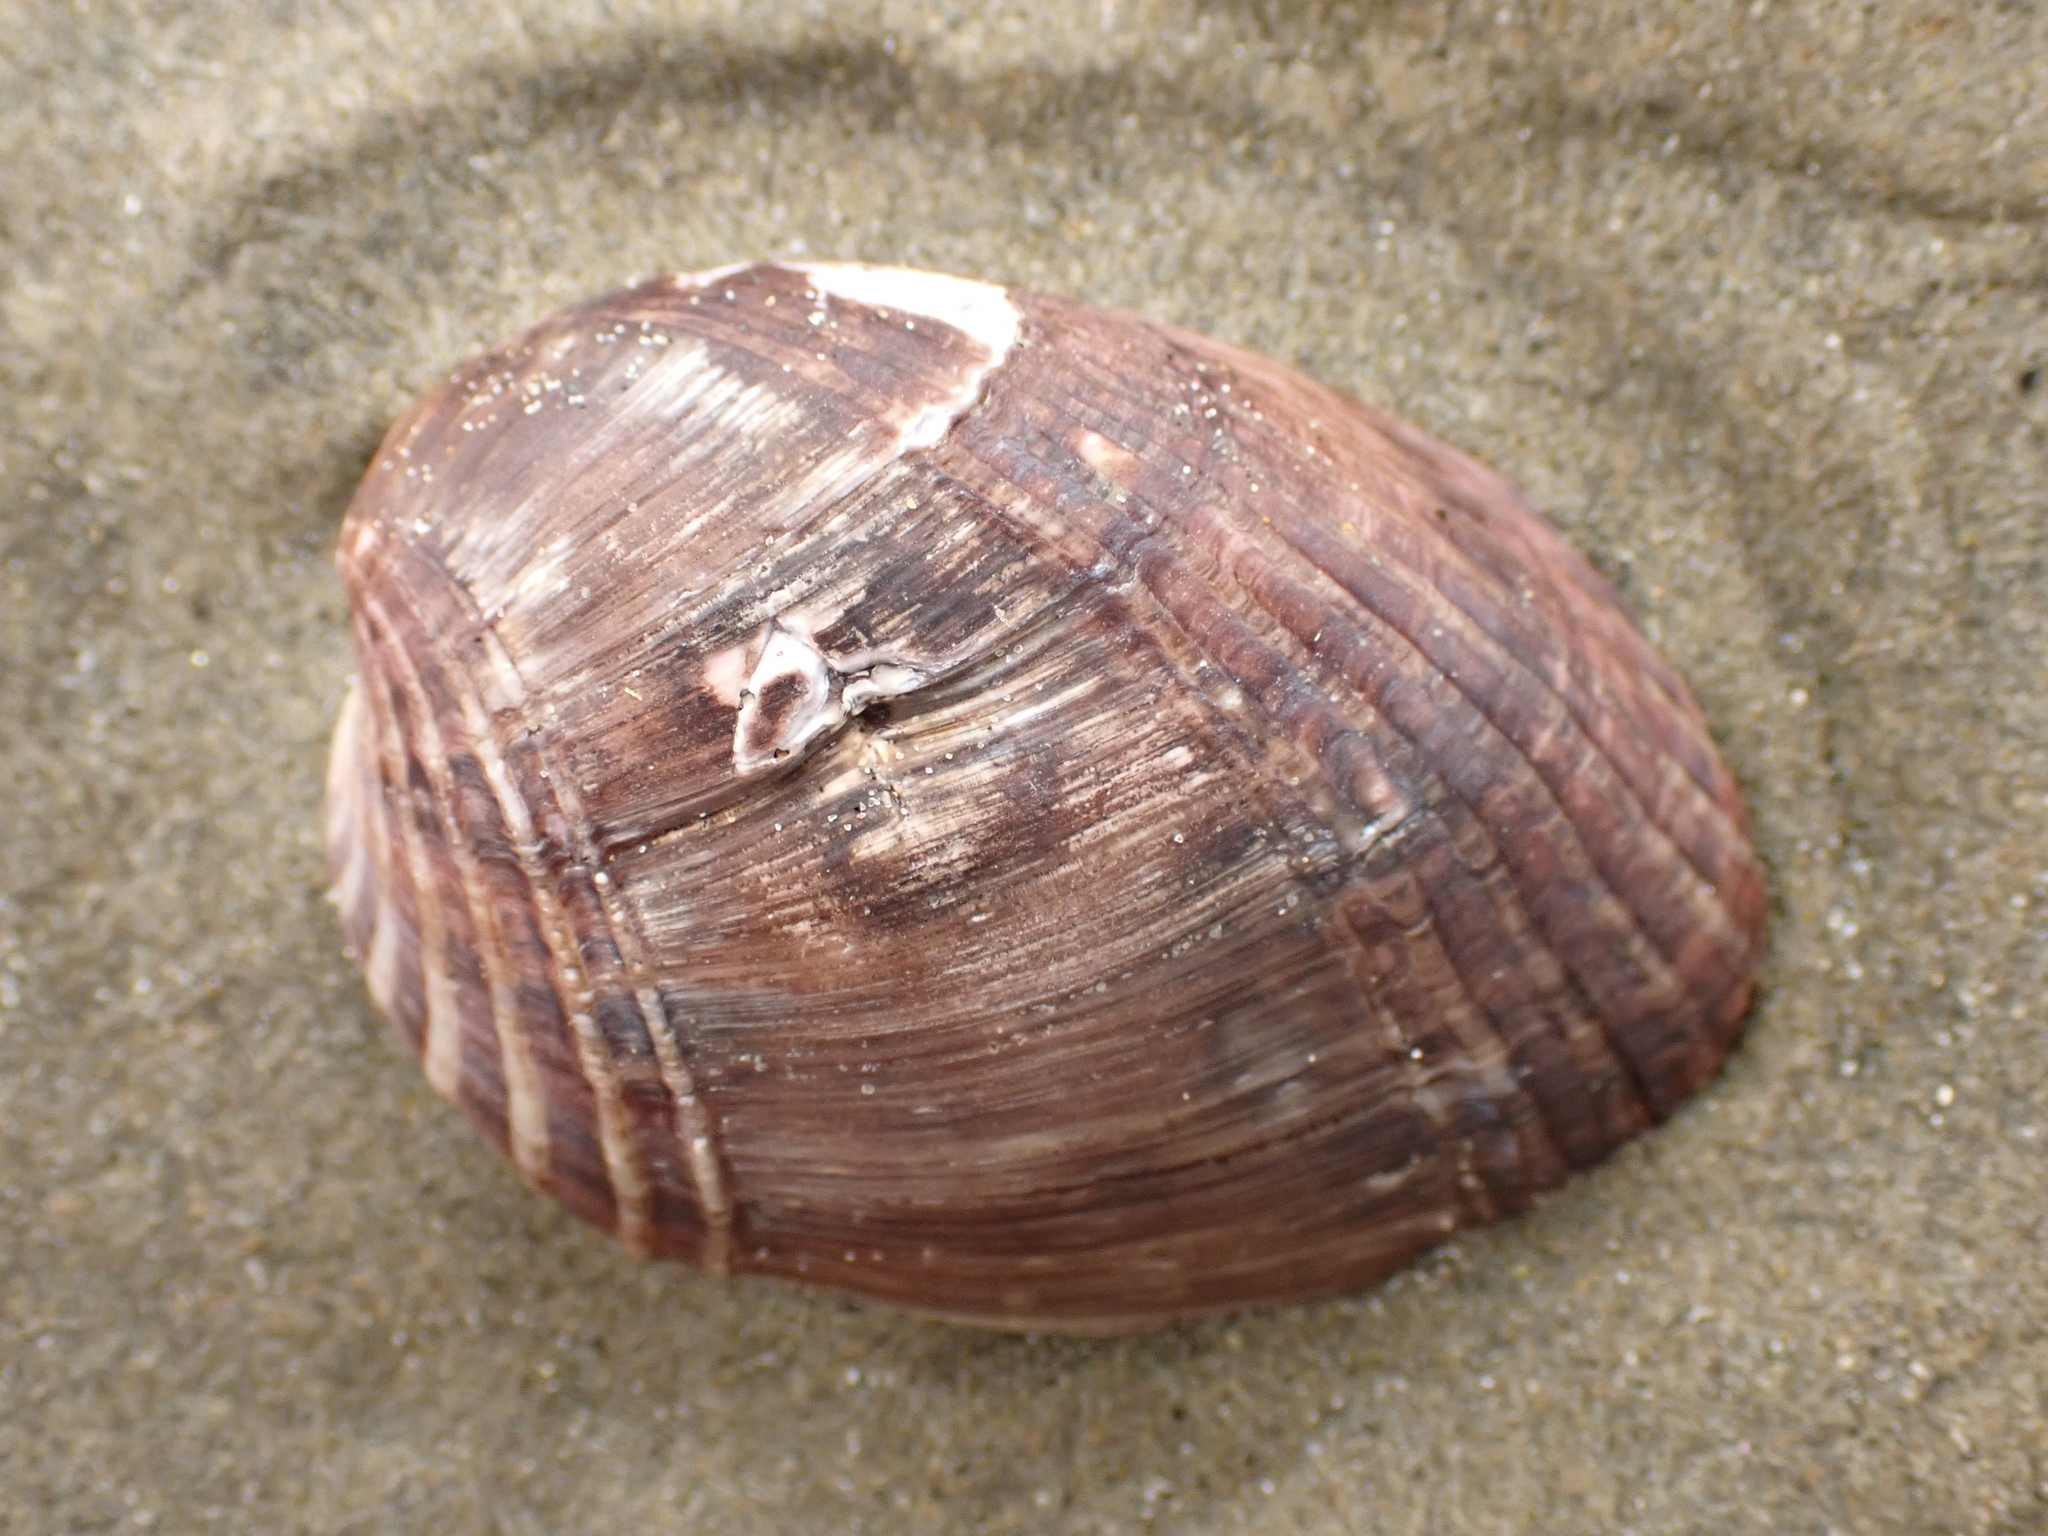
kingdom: Animalia
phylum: Mollusca
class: Bivalvia
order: Mytilida
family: Mytilidae
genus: Musculus
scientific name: Musculus impactus
